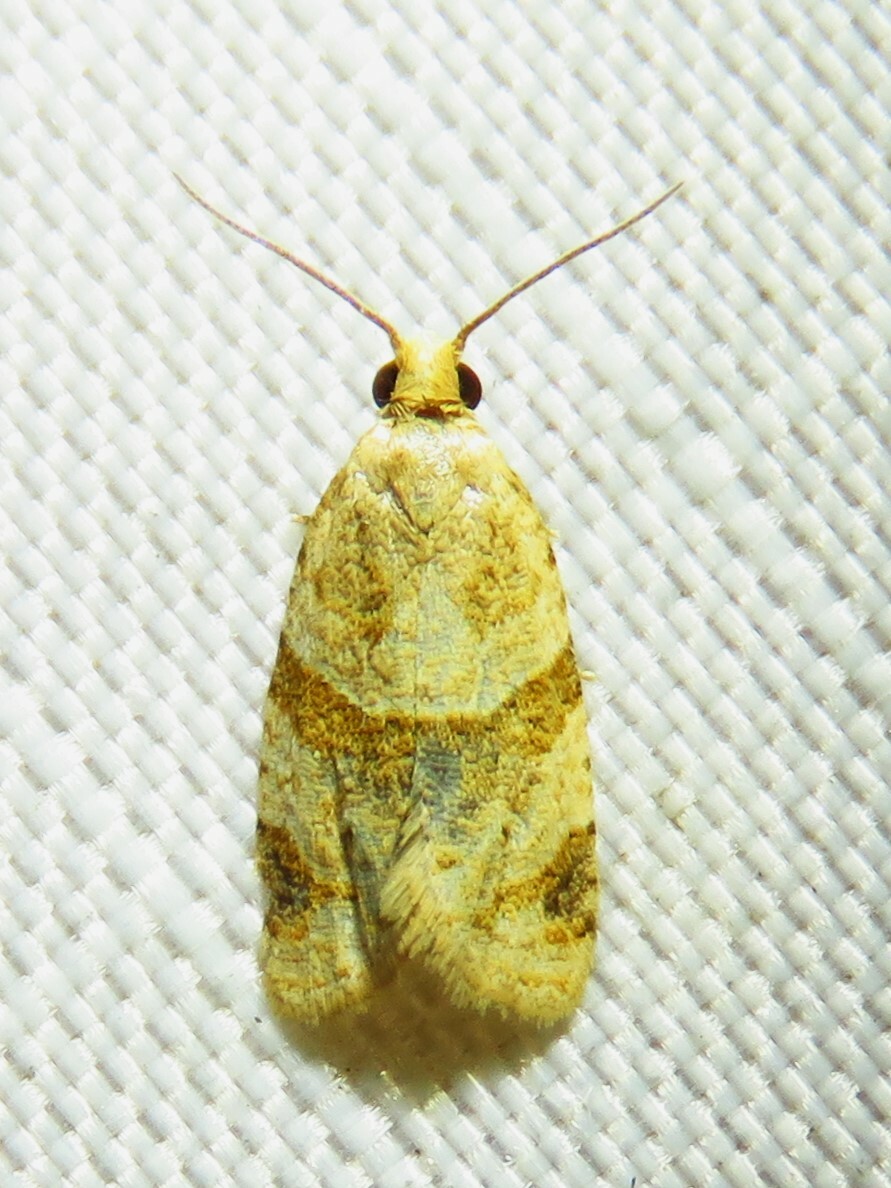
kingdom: Animalia
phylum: Arthropoda
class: Insecta
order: Lepidoptera
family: Tortricidae
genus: Clepsis
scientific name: Clepsis peritana
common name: Garden tortrix
